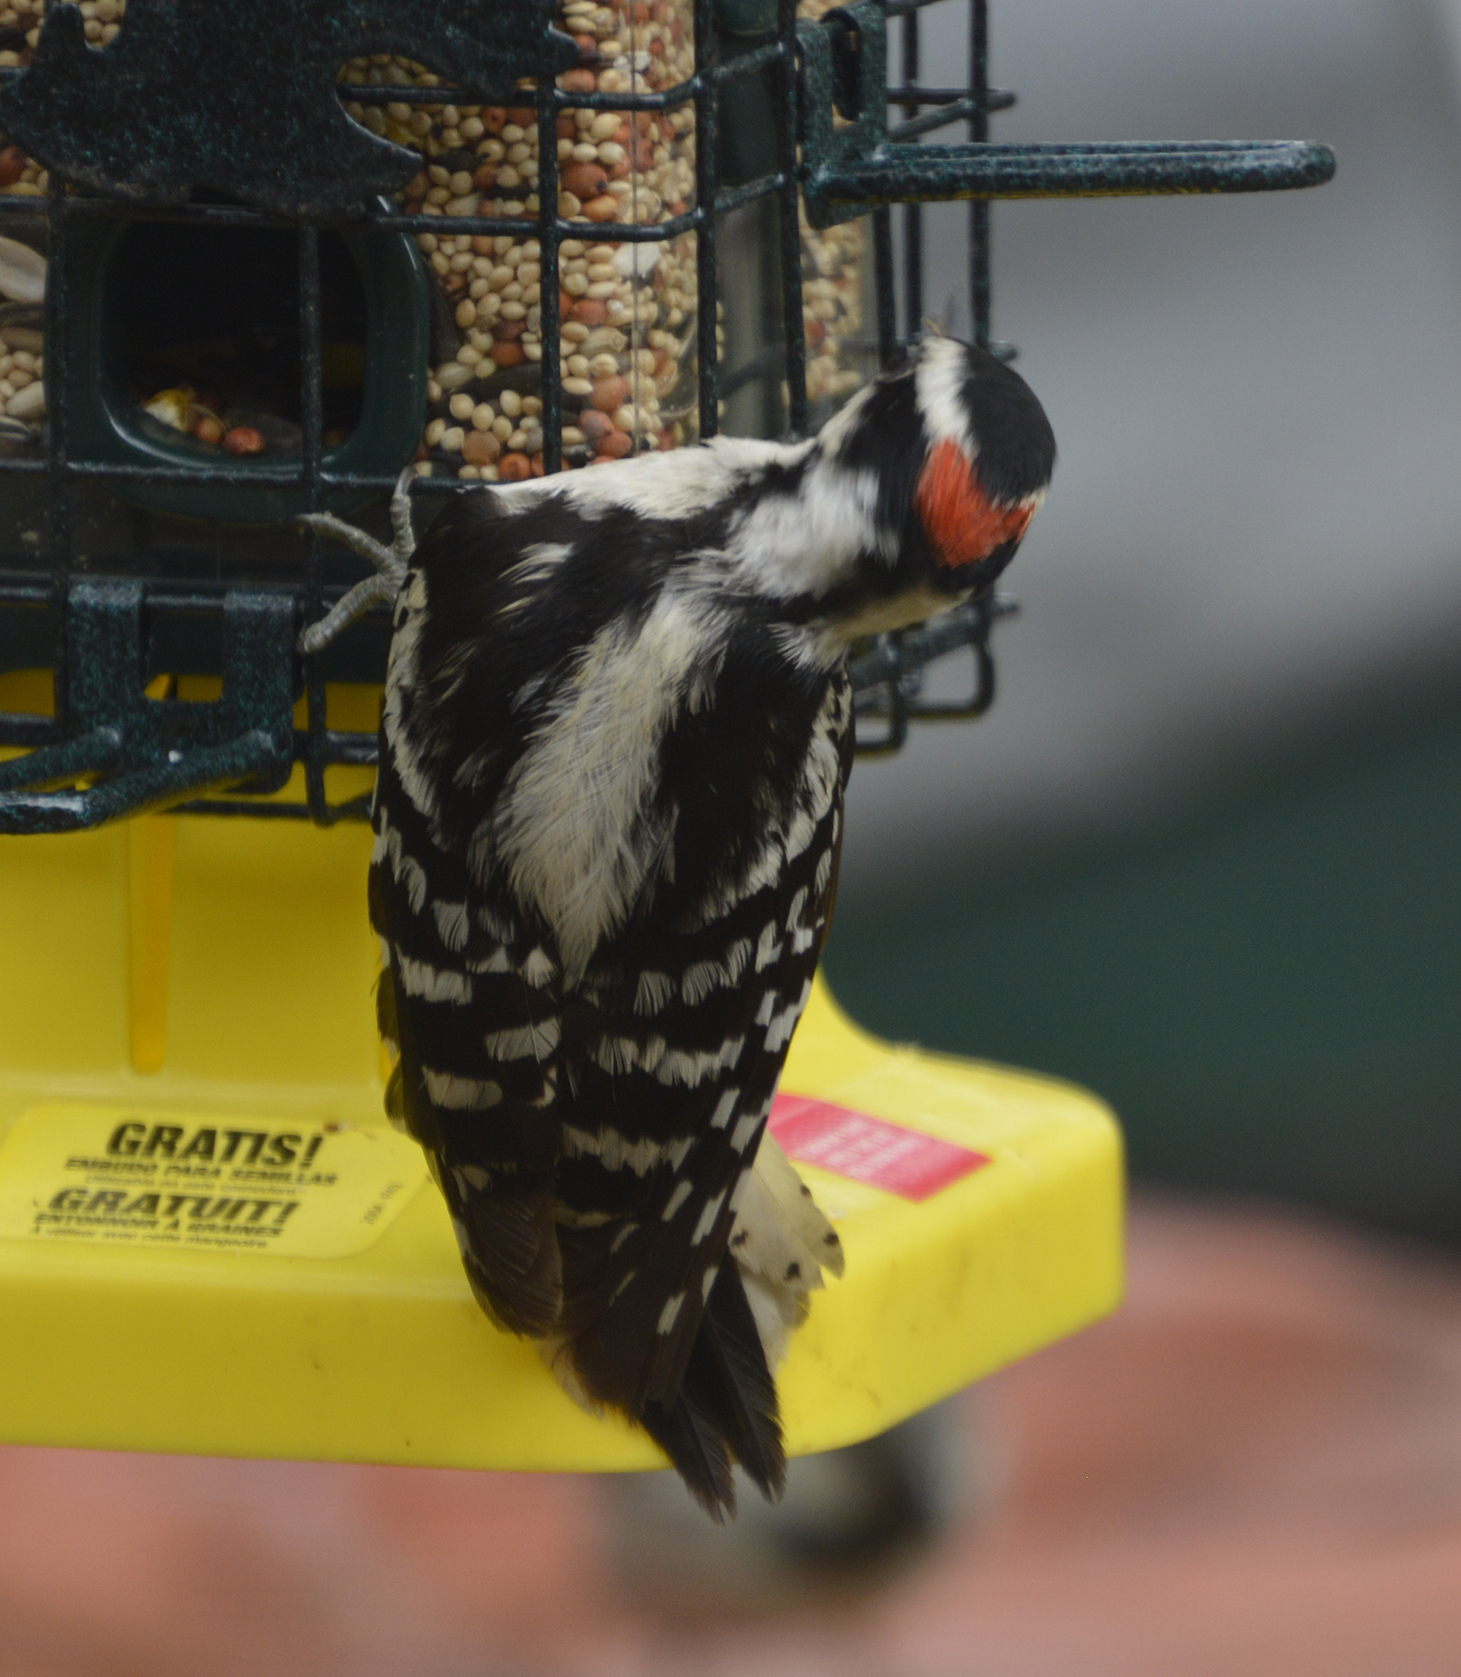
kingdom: Animalia
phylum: Chordata
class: Aves
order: Piciformes
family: Picidae
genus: Dryobates
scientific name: Dryobates pubescens
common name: Downy woodpecker
